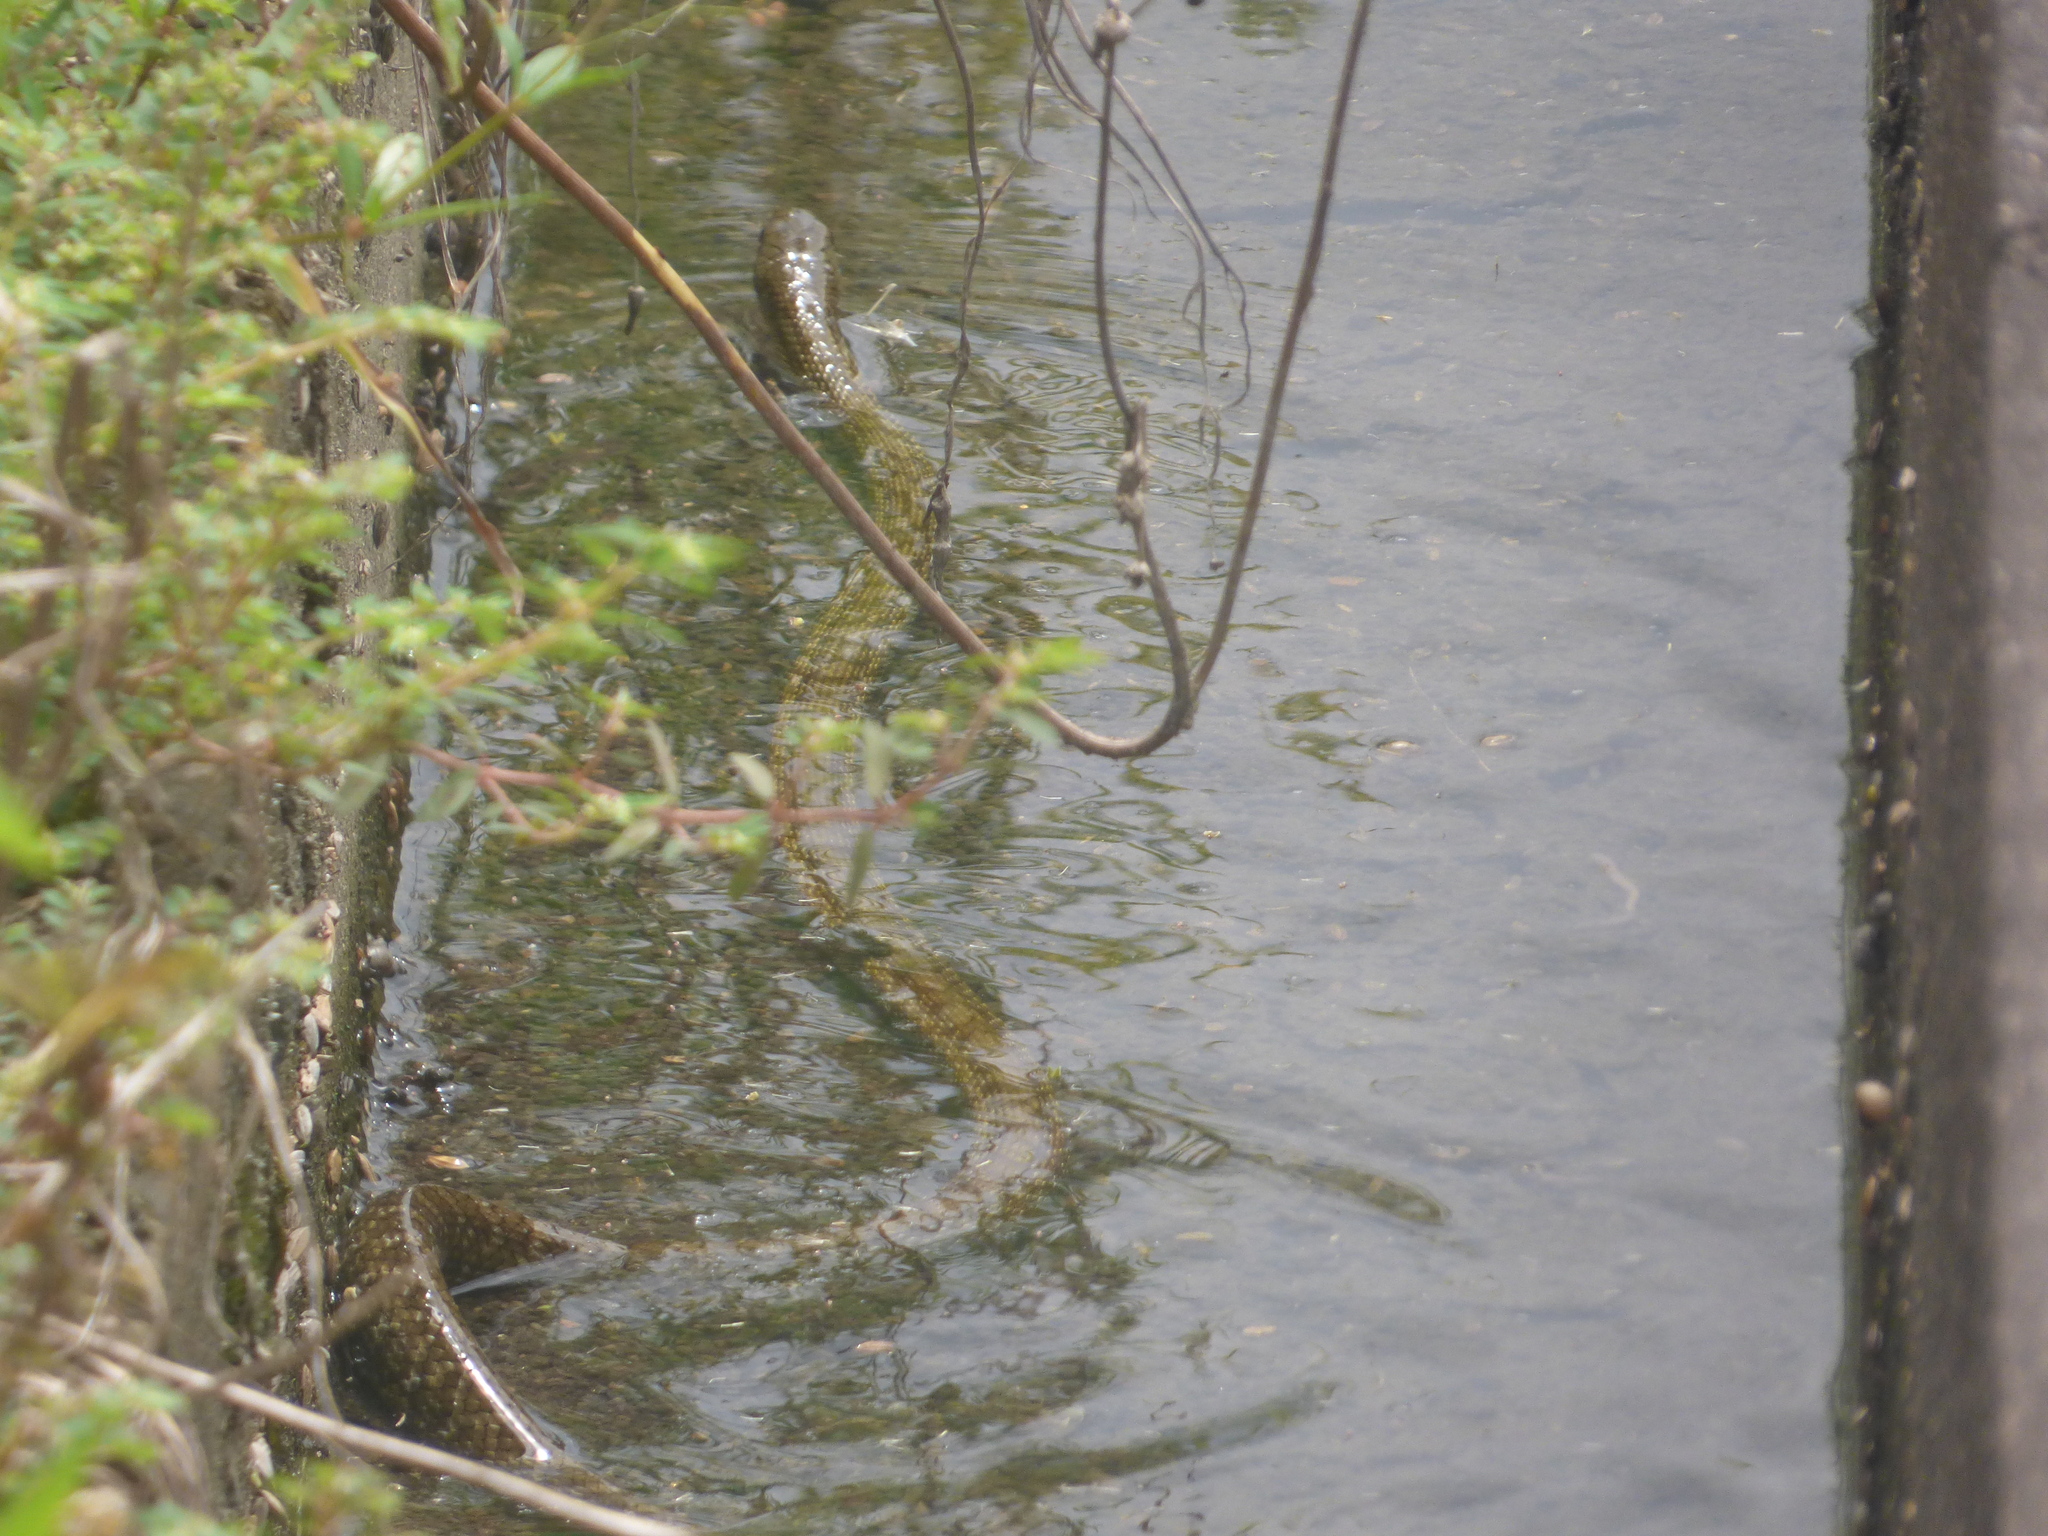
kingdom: Animalia
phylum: Chordata
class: Squamata
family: Colubridae
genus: Elaphe
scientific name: Elaphe climacophora
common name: Japanese ratsnake
